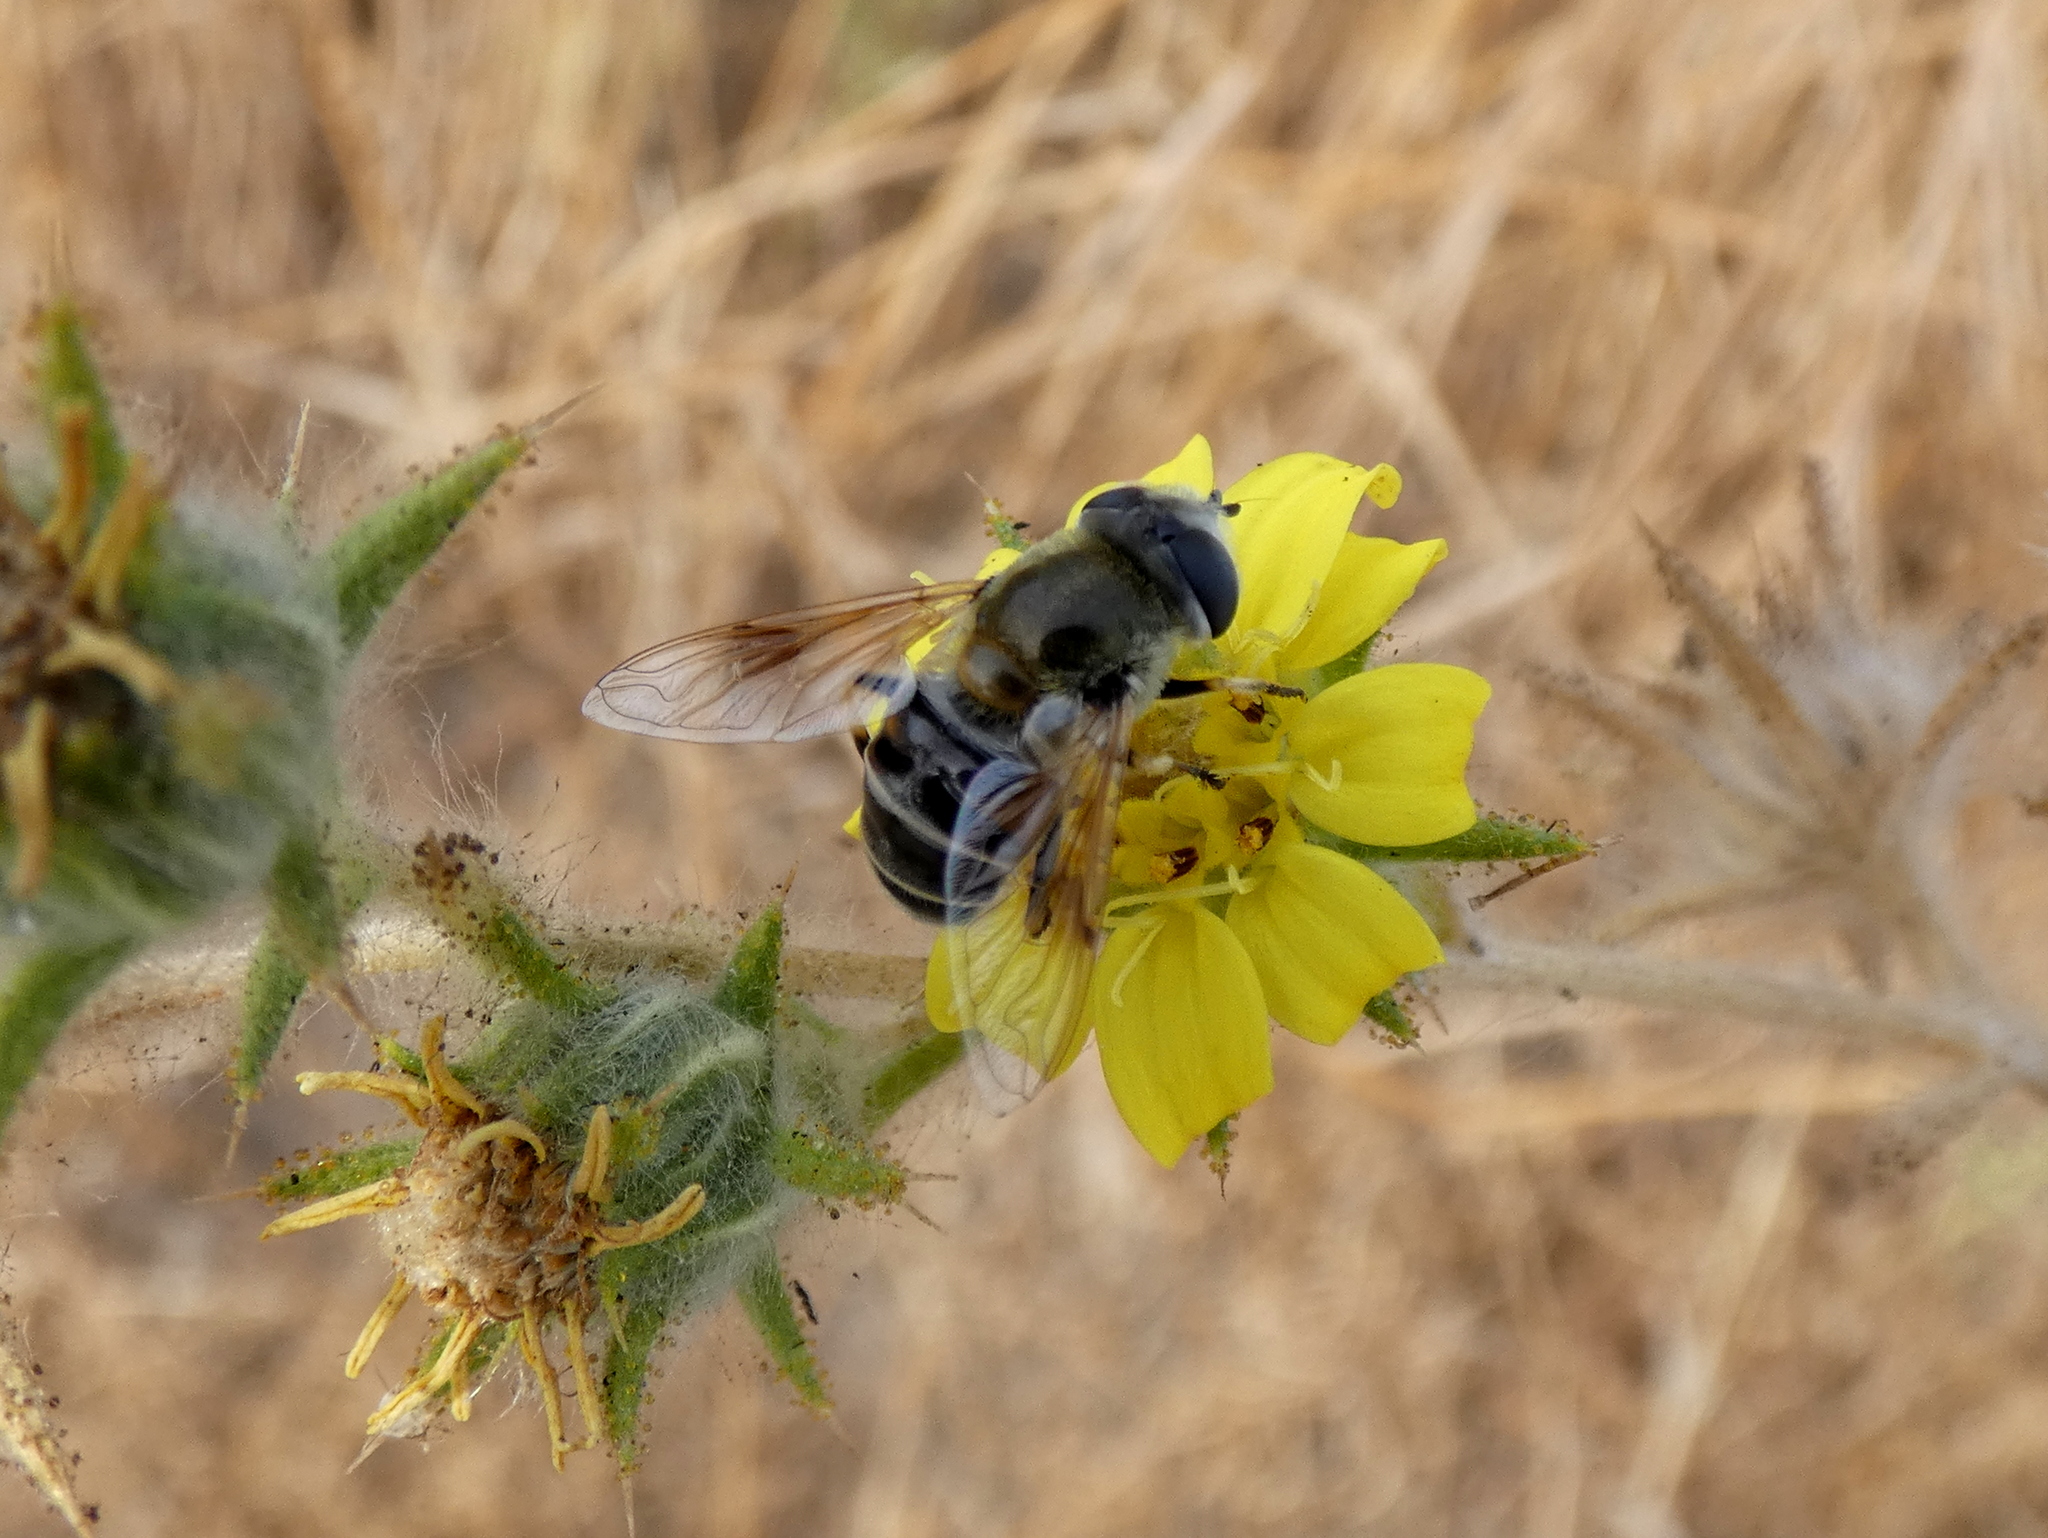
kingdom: Animalia
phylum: Arthropoda
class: Insecta
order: Diptera
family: Syrphidae
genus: Eristalis
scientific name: Eristalis stipator
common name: Yellow-shouldered drone fly
